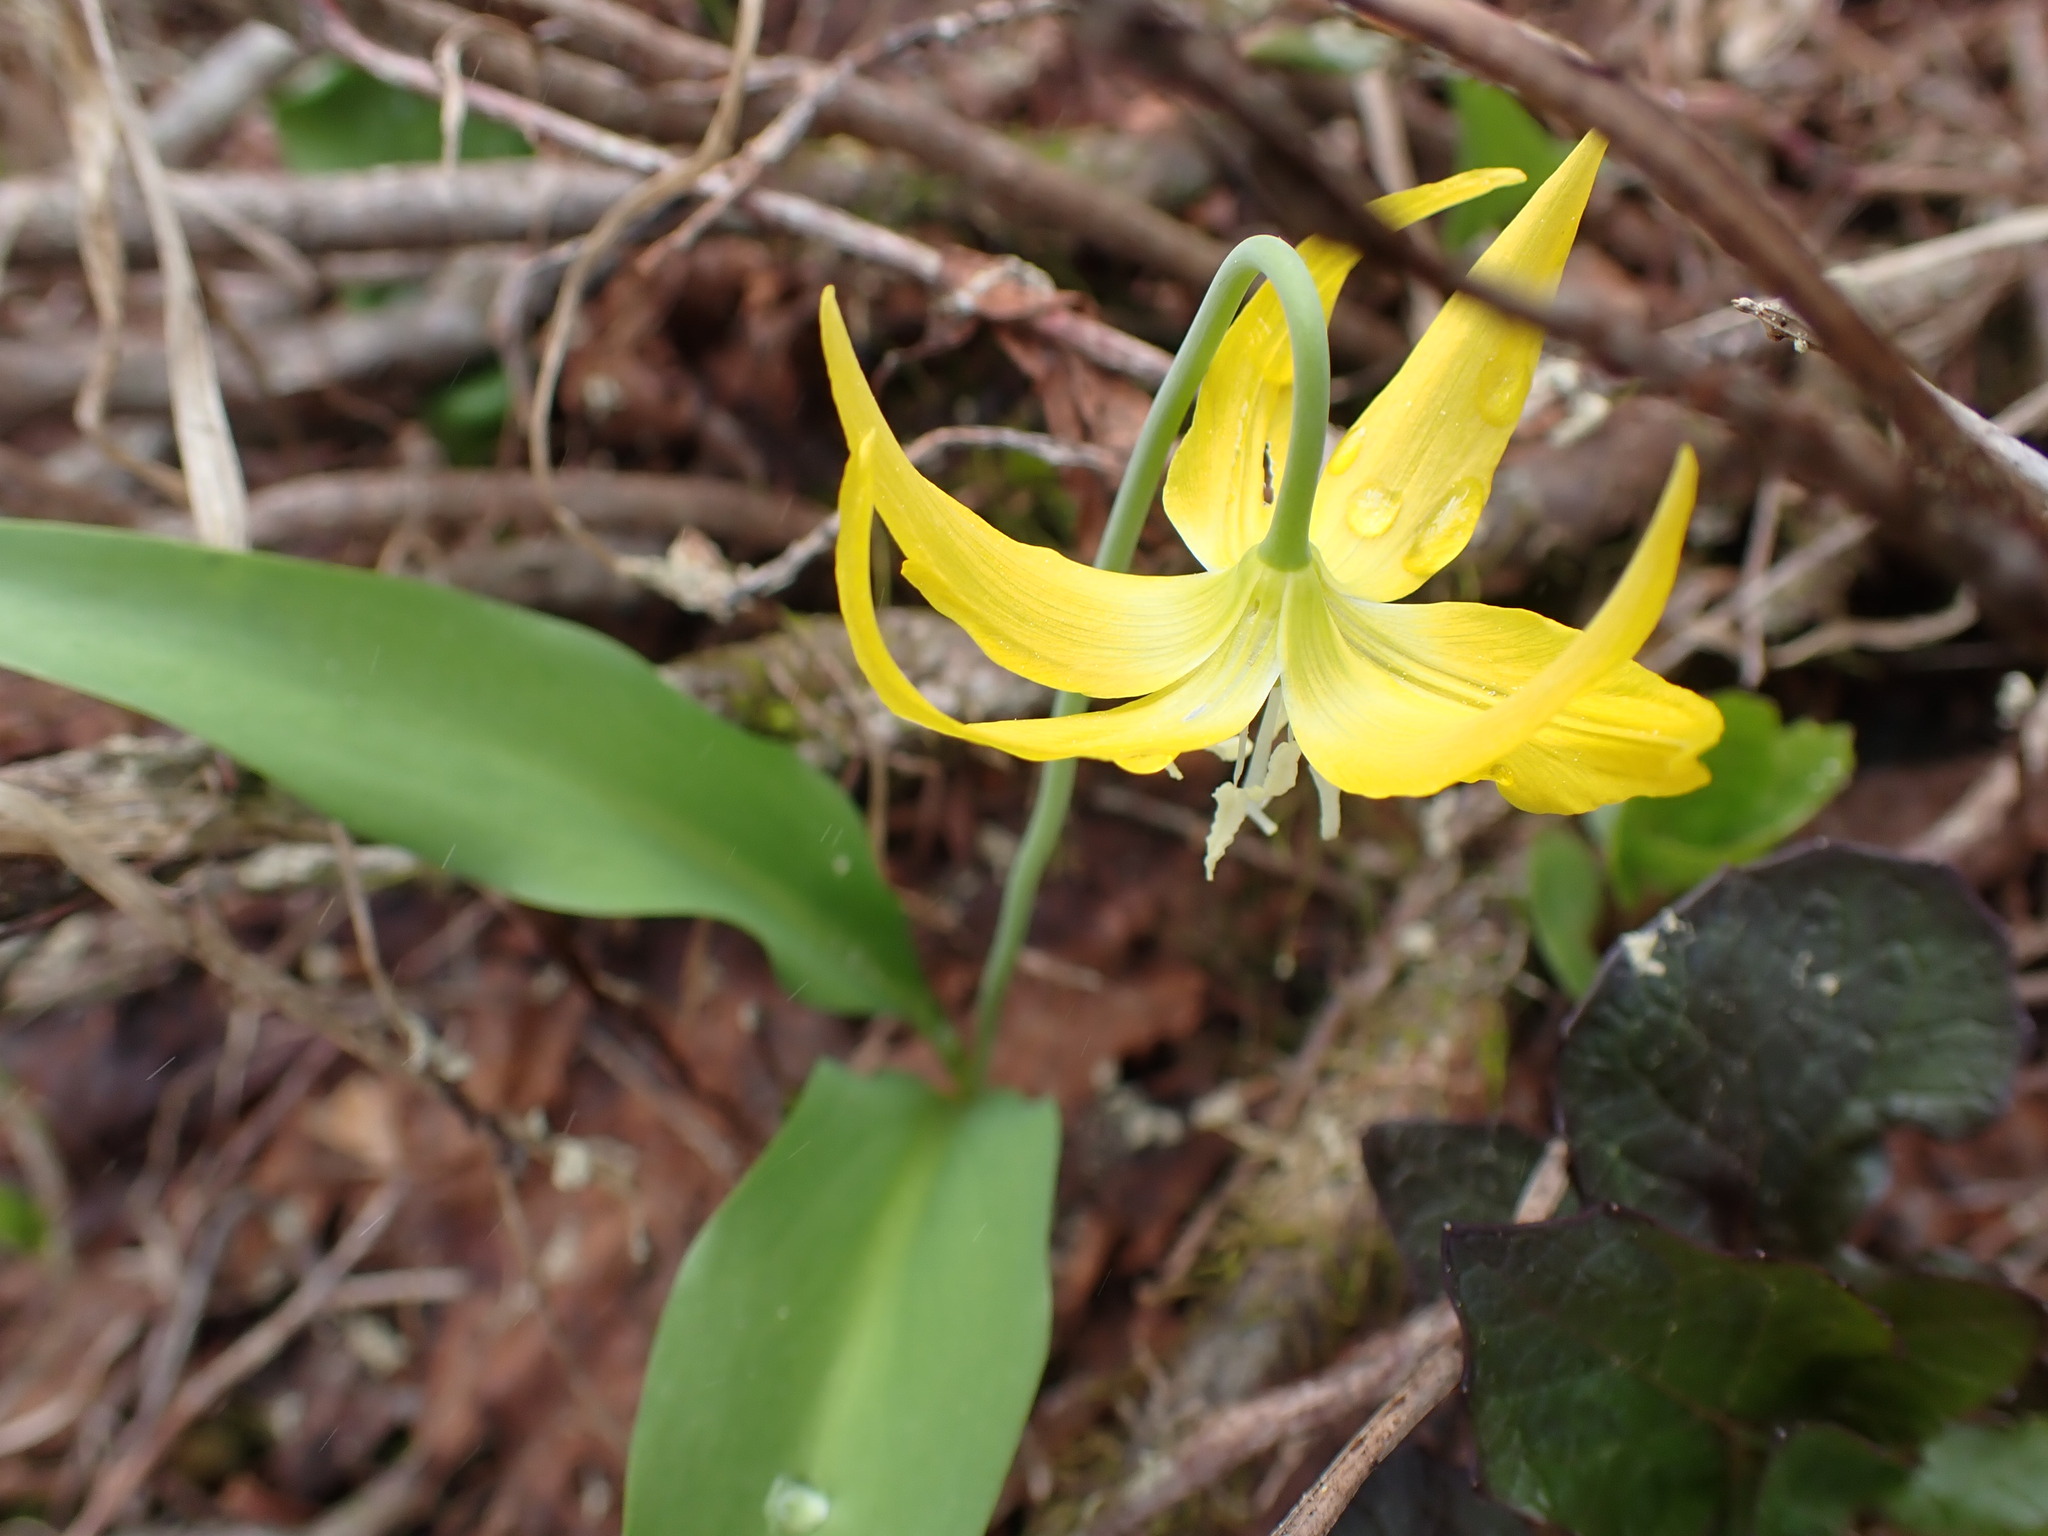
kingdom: Plantae
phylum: Tracheophyta
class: Liliopsida
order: Liliales
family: Liliaceae
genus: Erythronium
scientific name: Erythronium grandiflorum
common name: Avalanche-lily
